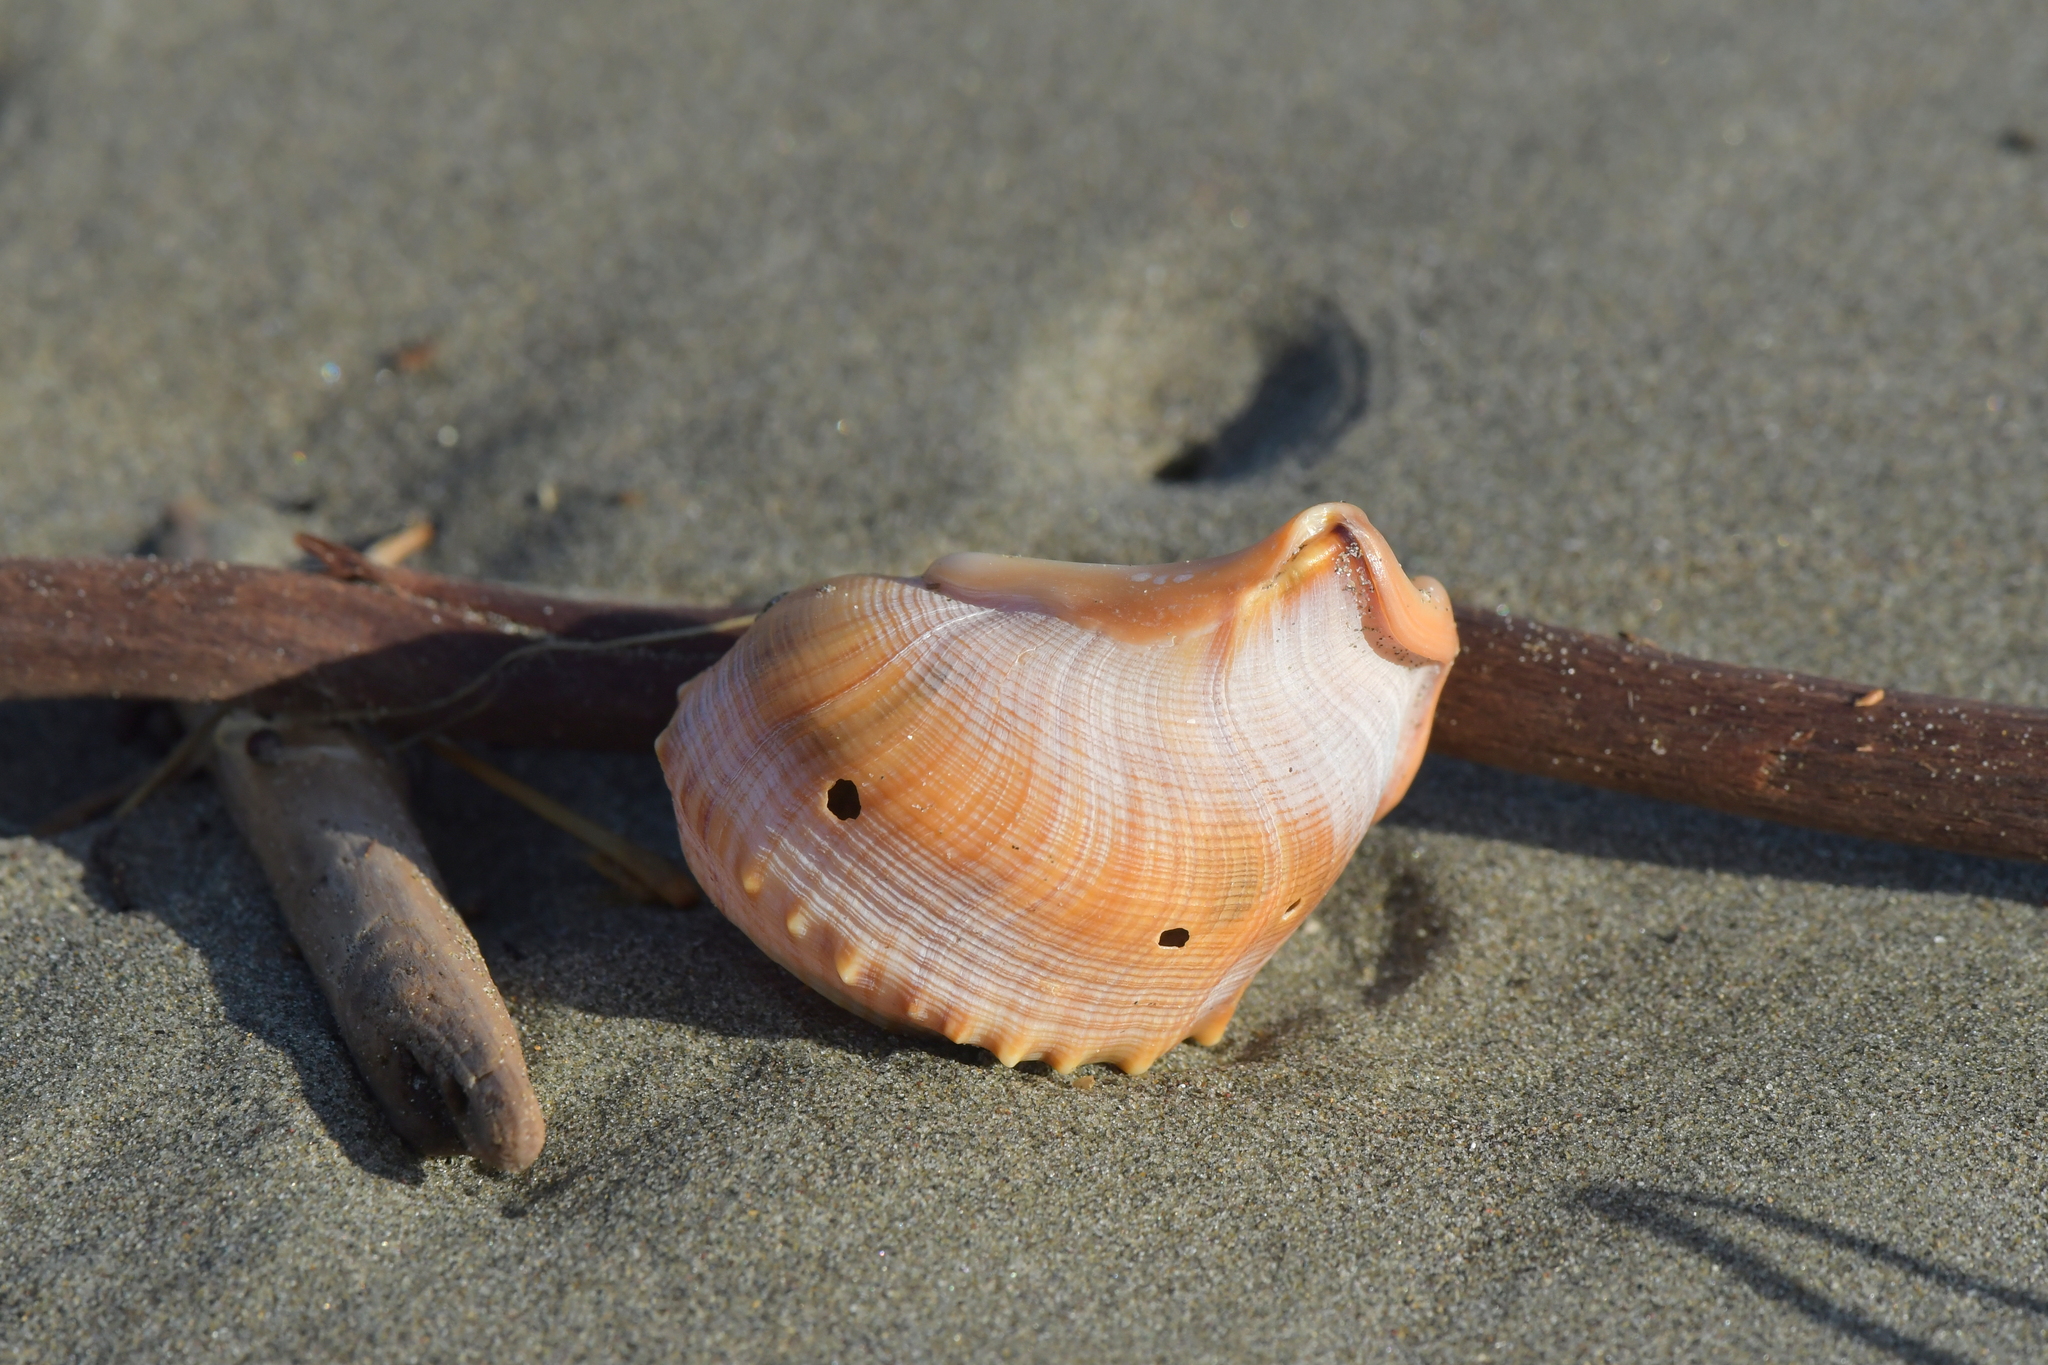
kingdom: Animalia
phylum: Mollusca
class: Gastropoda
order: Littorinimorpha
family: Struthiolariidae
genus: Struthiolaria
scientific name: Struthiolaria papulosa
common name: Large ostrich foot
